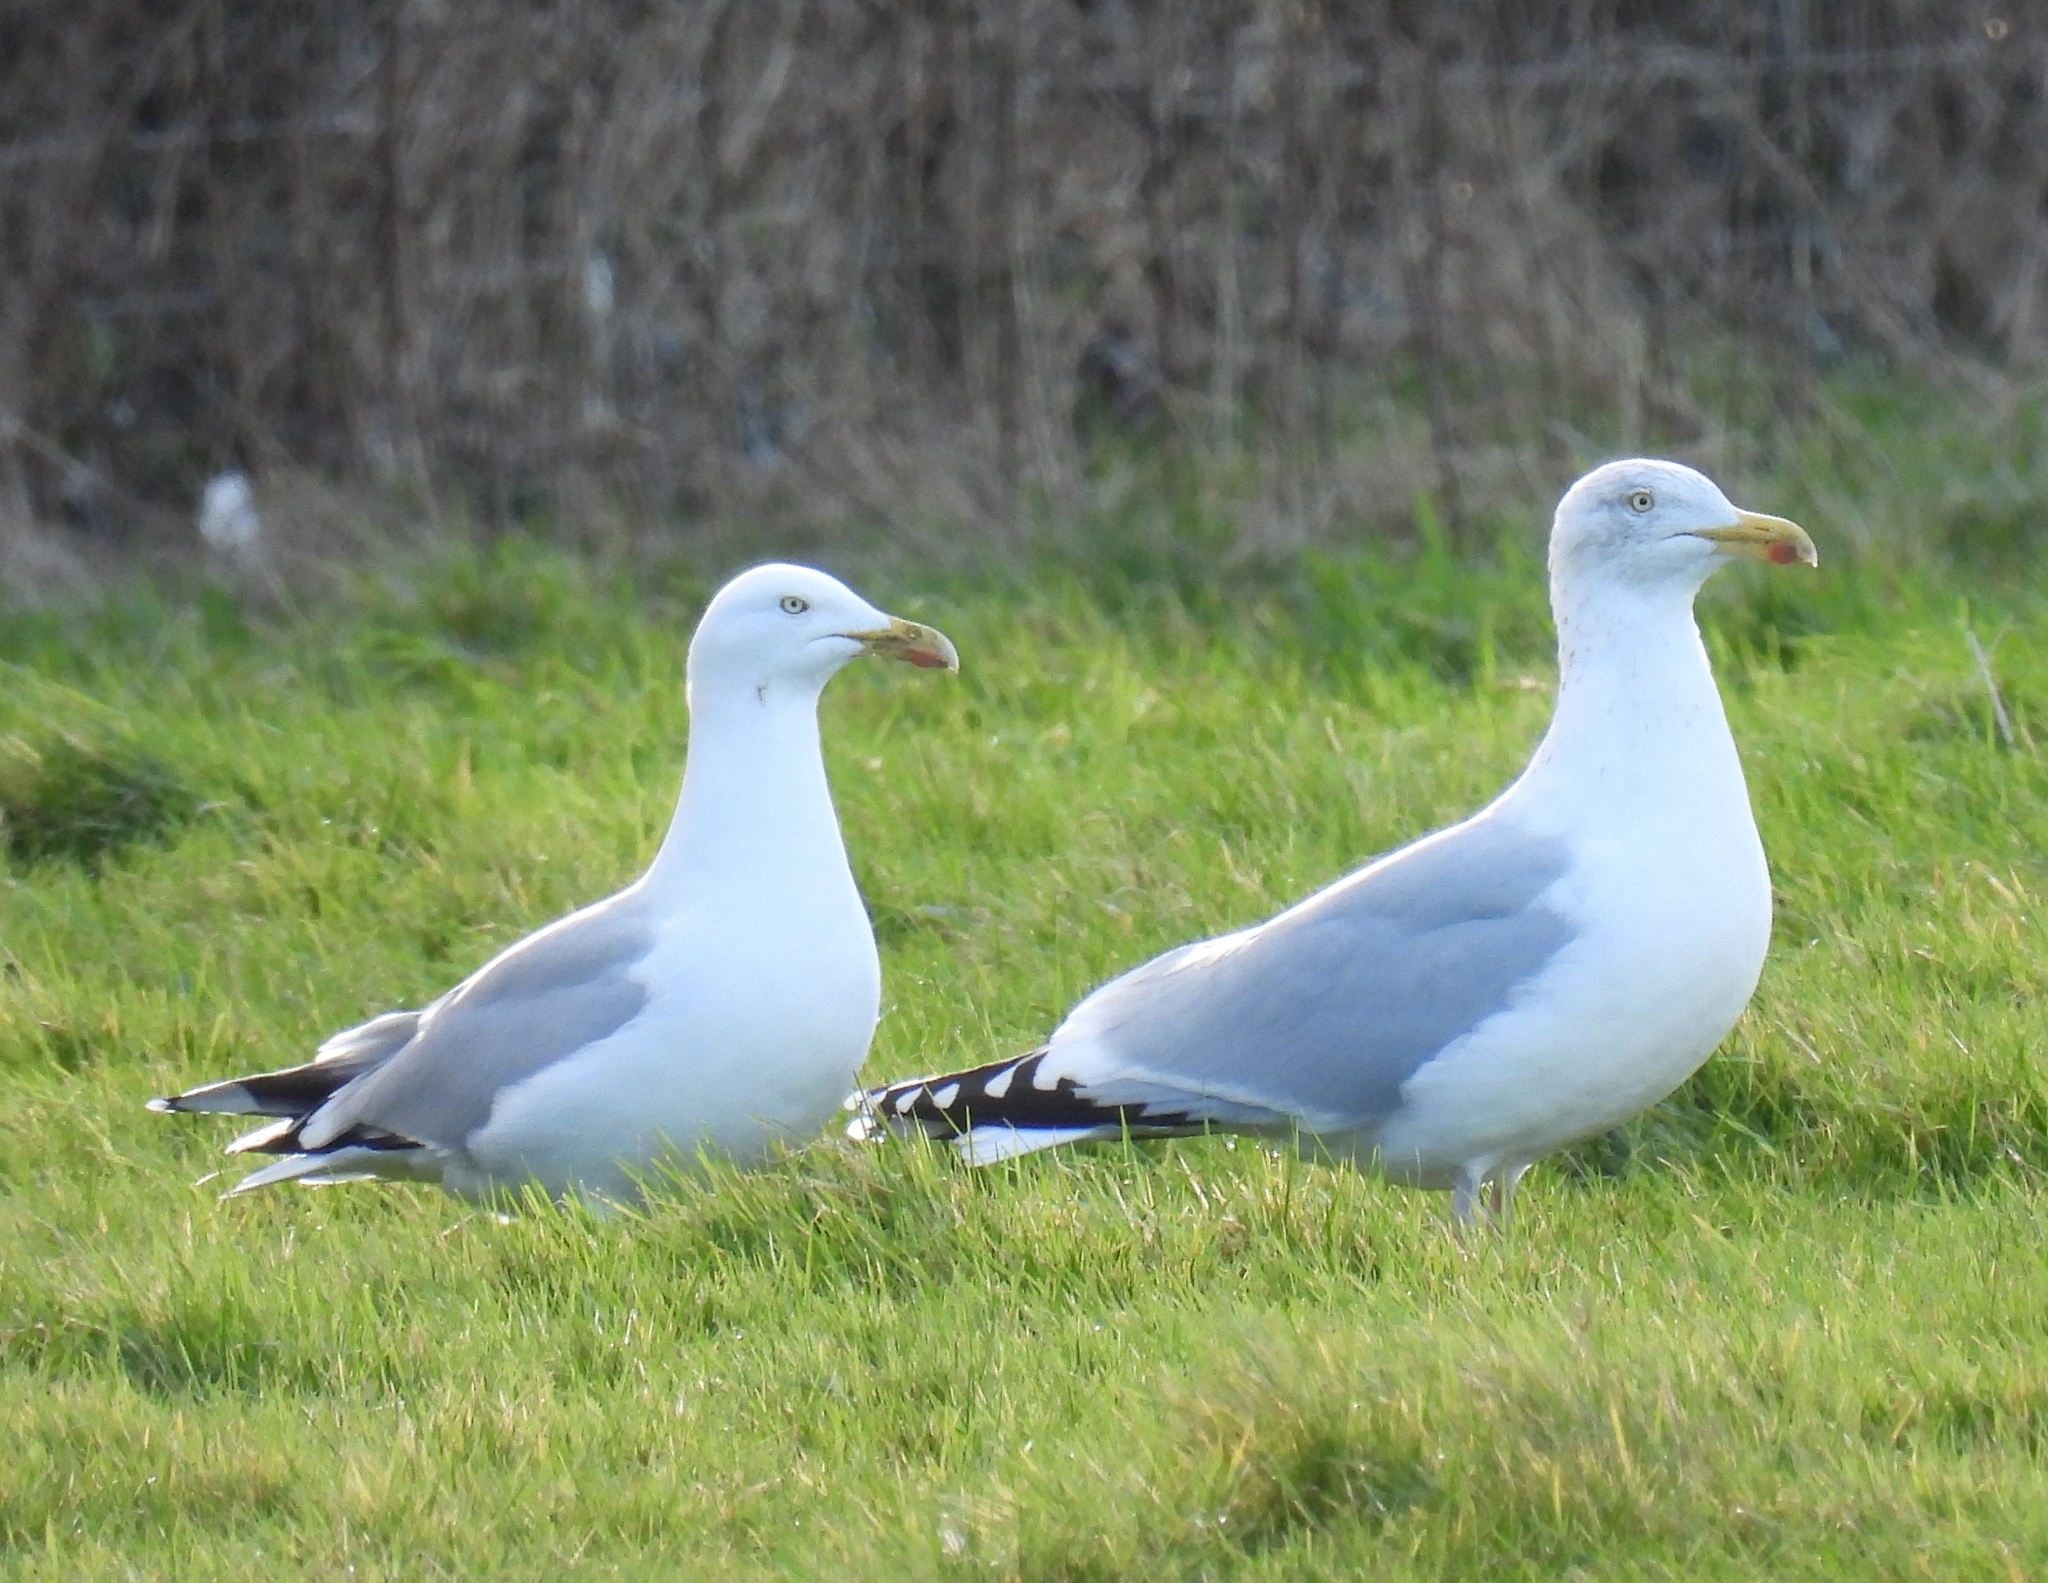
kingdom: Animalia
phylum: Chordata
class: Aves
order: Charadriiformes
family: Laridae
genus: Larus
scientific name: Larus argentatus
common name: Herring gull
